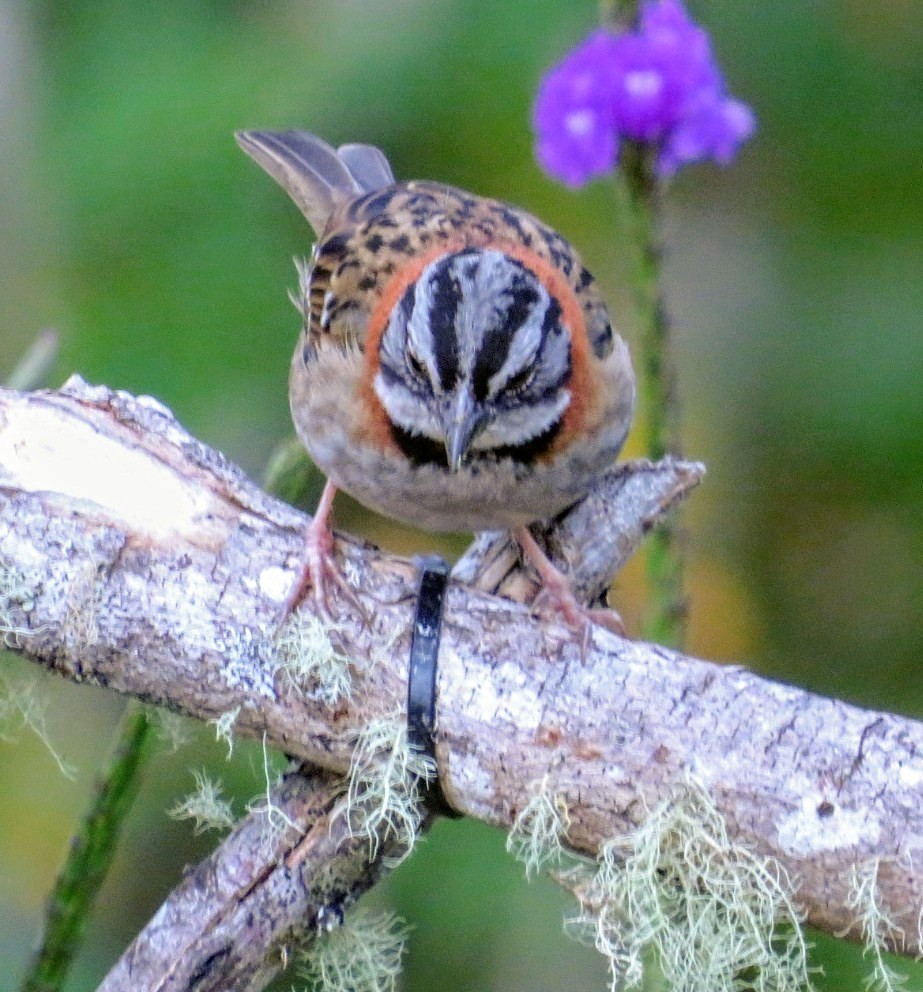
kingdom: Animalia
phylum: Chordata
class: Aves
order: Passeriformes
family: Passerellidae
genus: Zonotrichia
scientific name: Zonotrichia capensis
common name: Rufous-collared sparrow
